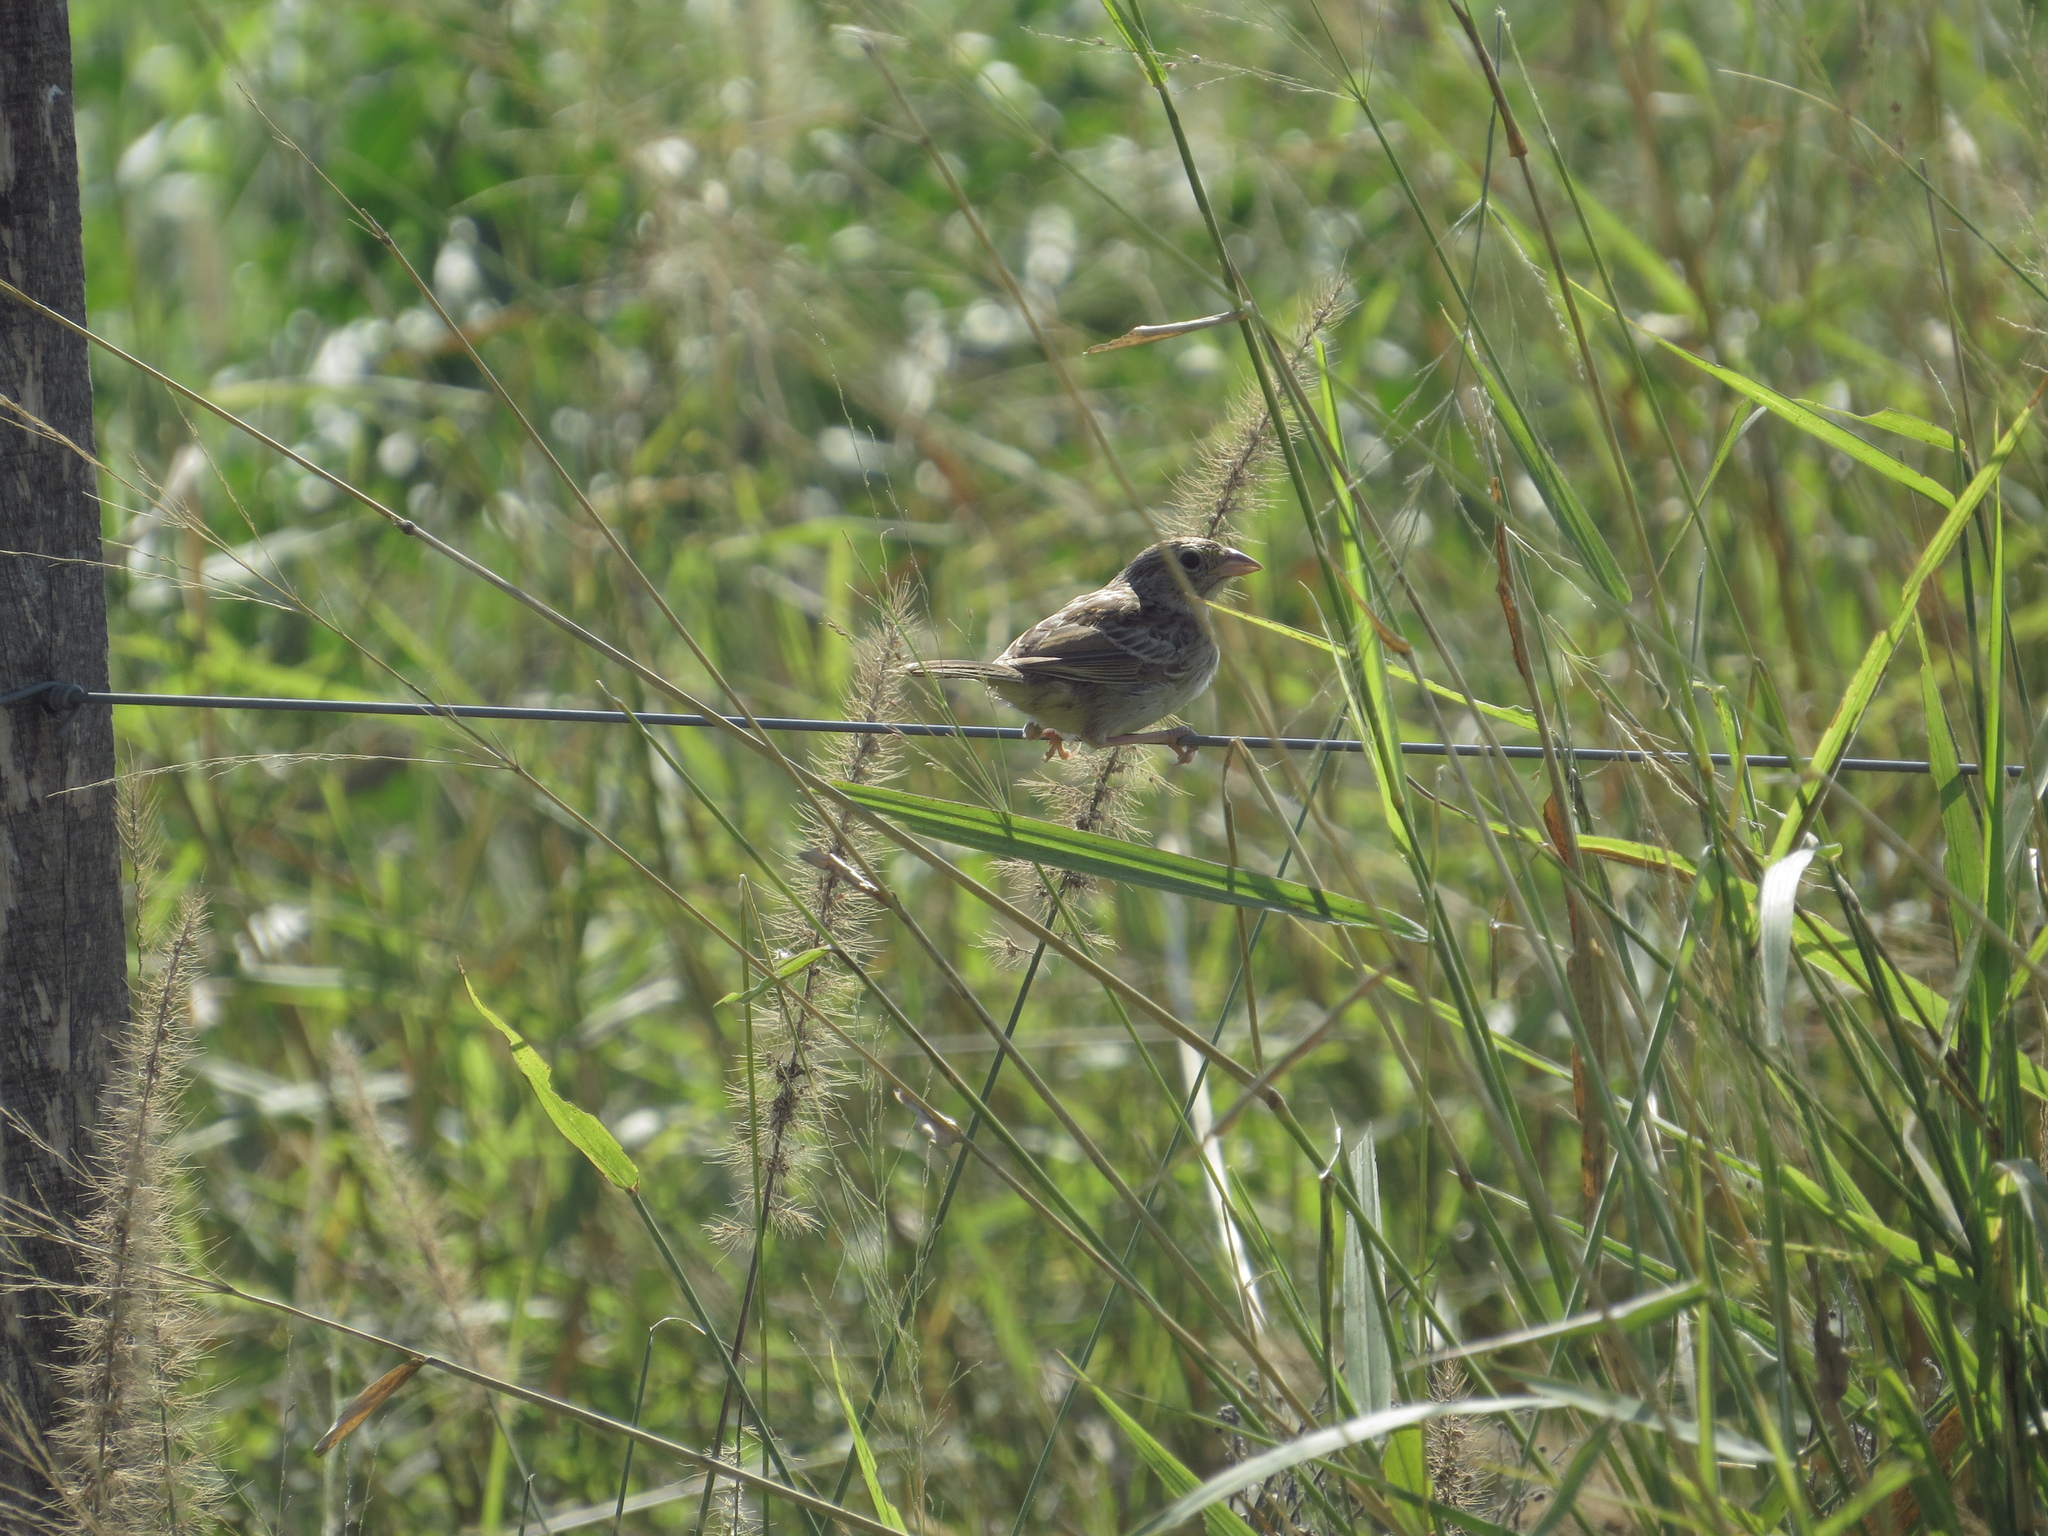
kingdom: Animalia
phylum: Chordata
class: Aves
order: Passeriformes
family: Passerellidae
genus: Ammodramus
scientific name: Ammodramus humeralis
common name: Grassland sparrow
